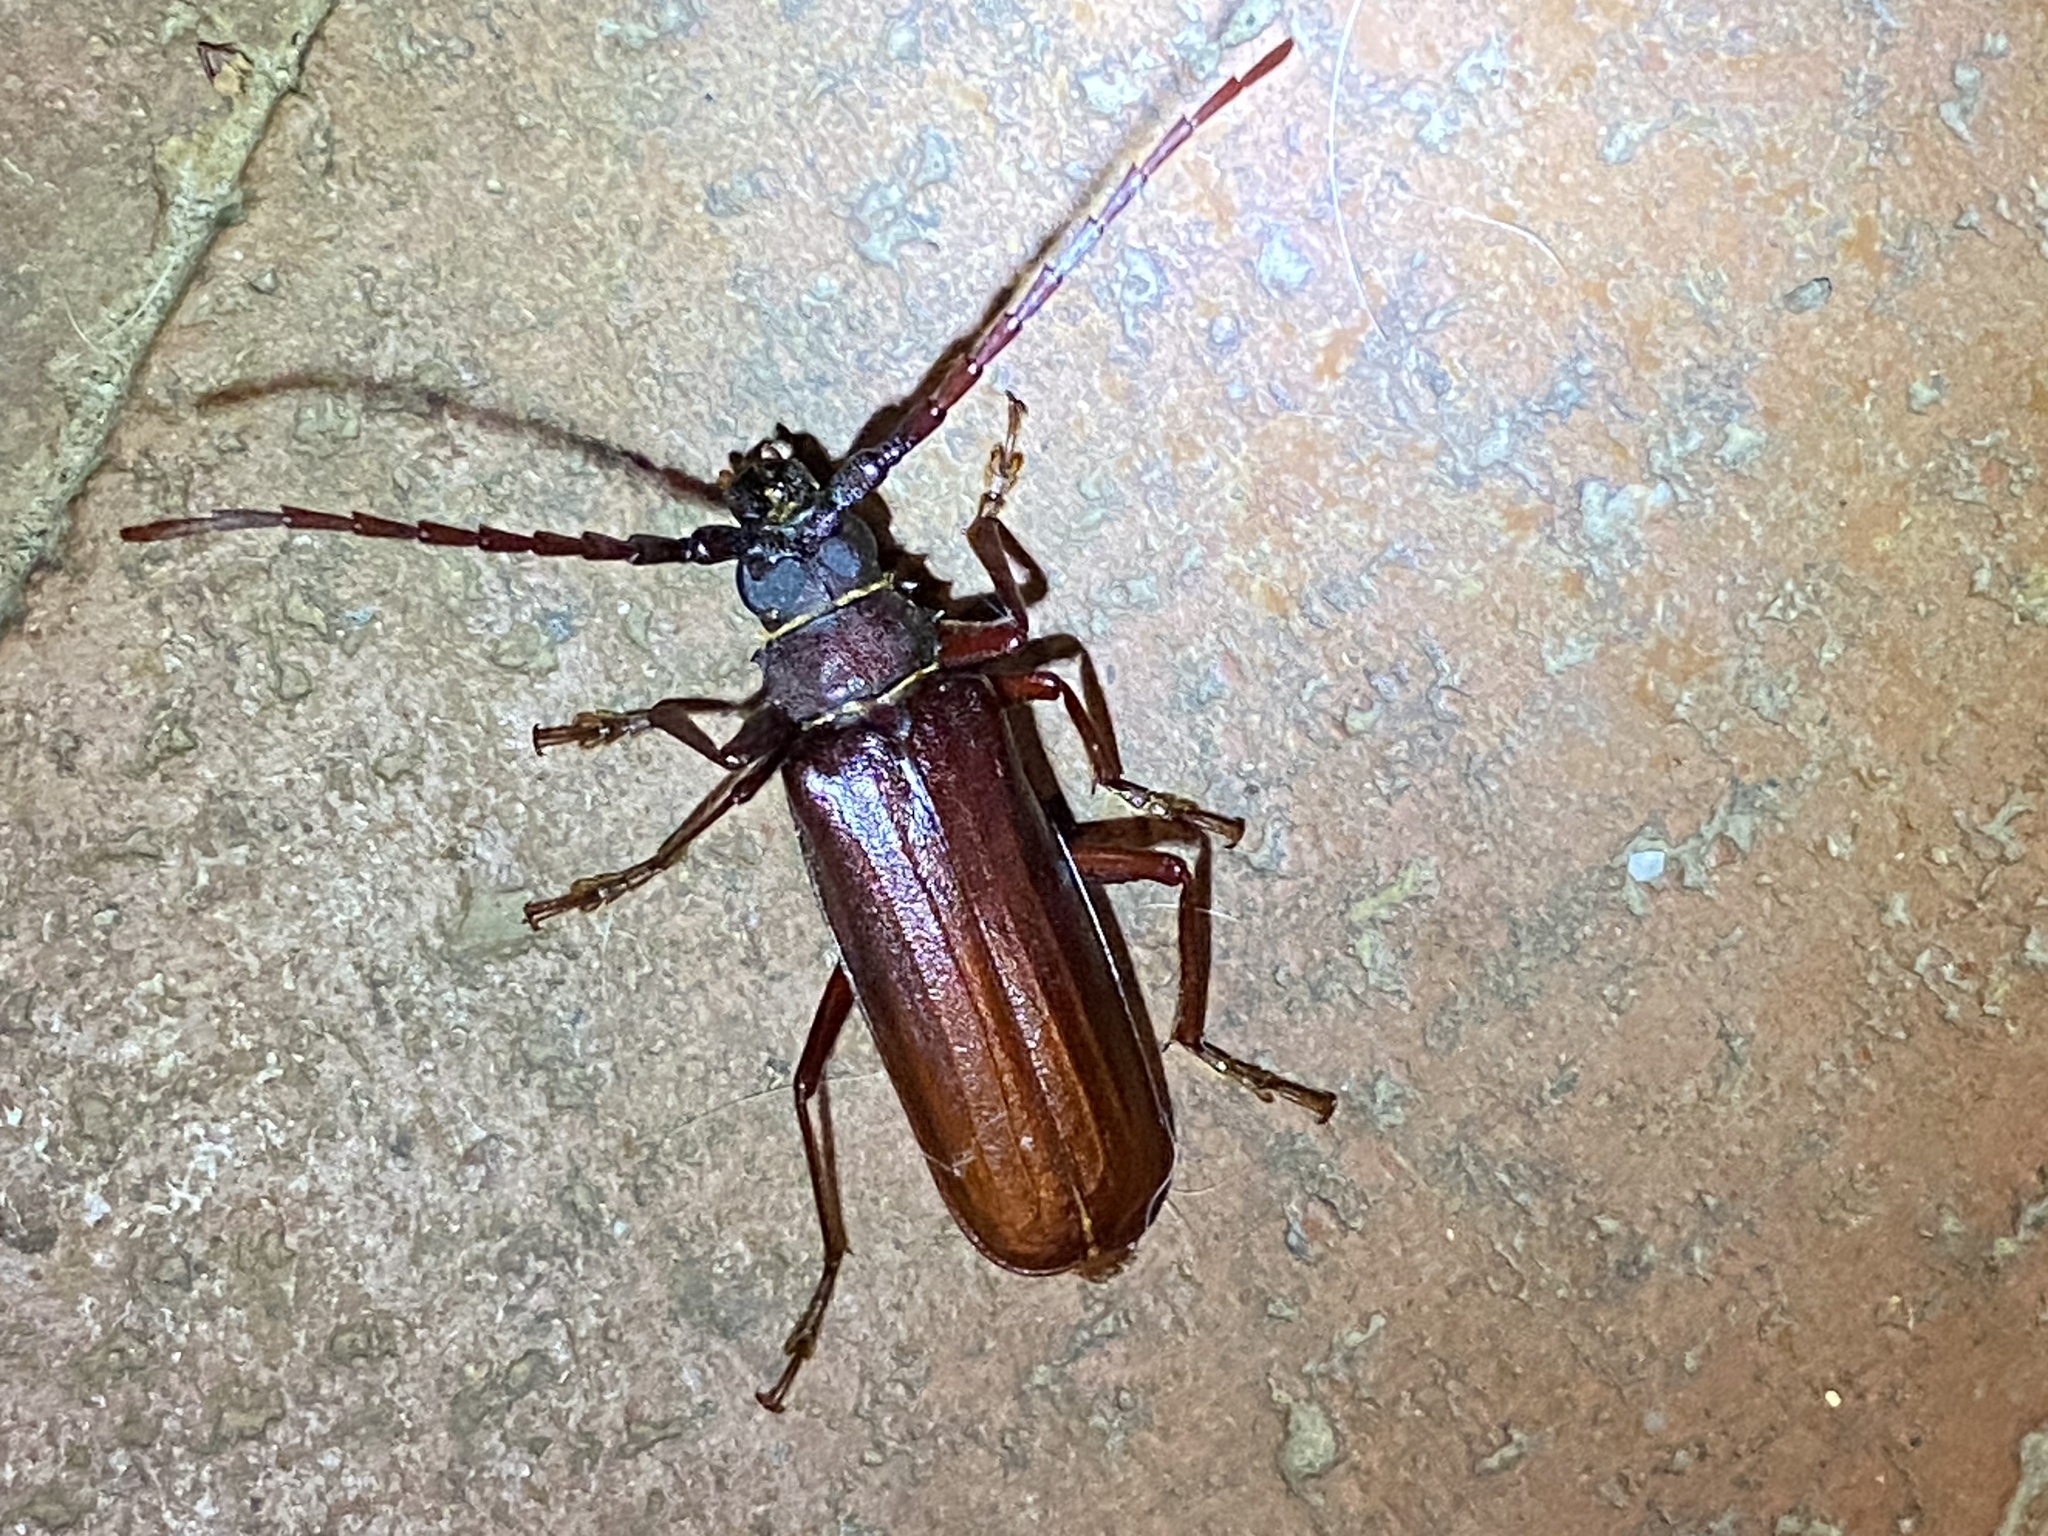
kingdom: Animalia
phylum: Arthropoda
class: Insecta
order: Coleoptera
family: Cerambycidae
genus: Orthosoma
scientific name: Orthosoma brunneum
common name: Brown prionid beetle
